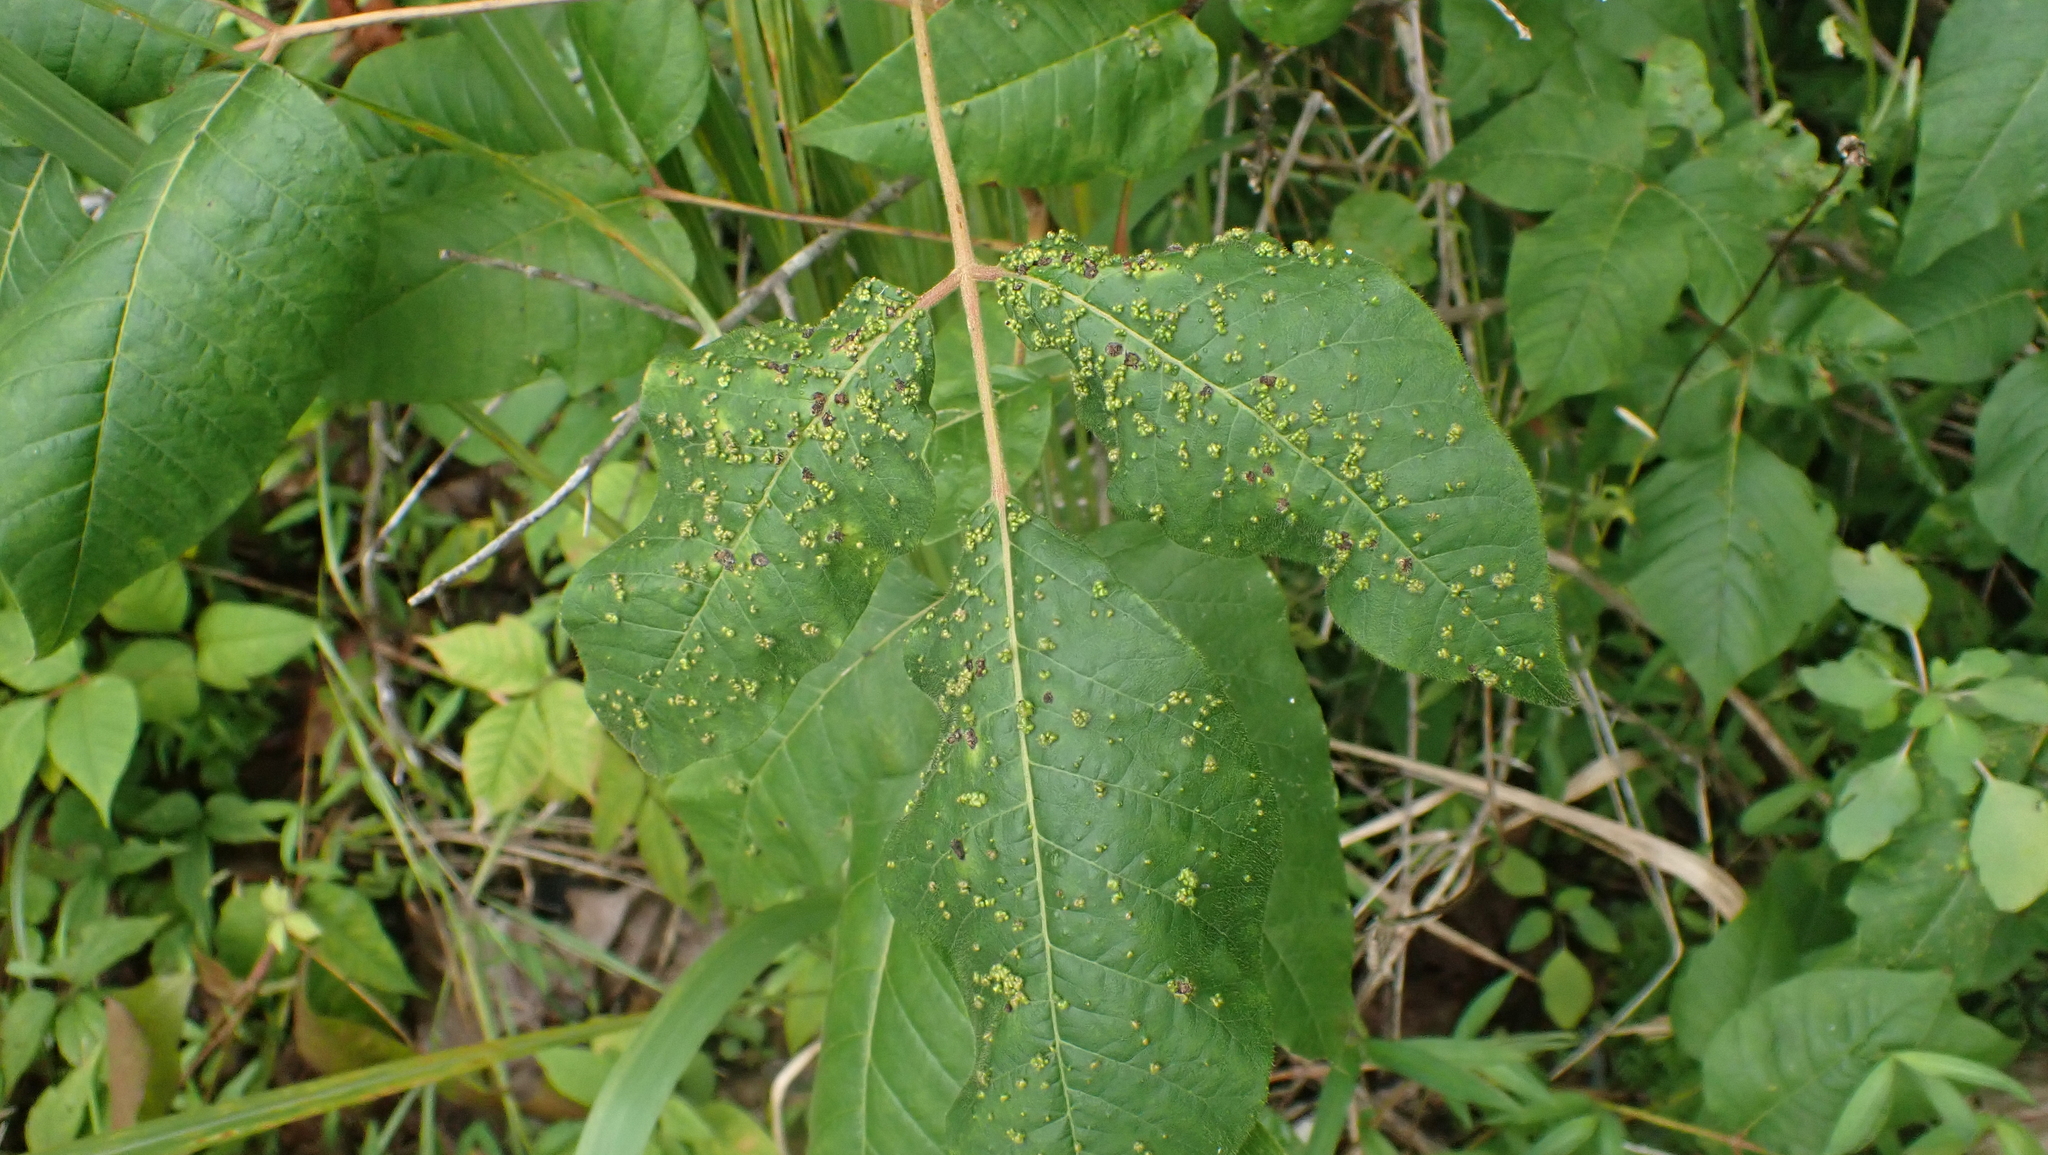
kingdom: Animalia
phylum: Arthropoda
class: Arachnida
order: Trombidiformes
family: Eriophyidae
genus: Aculops
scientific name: Aculops
